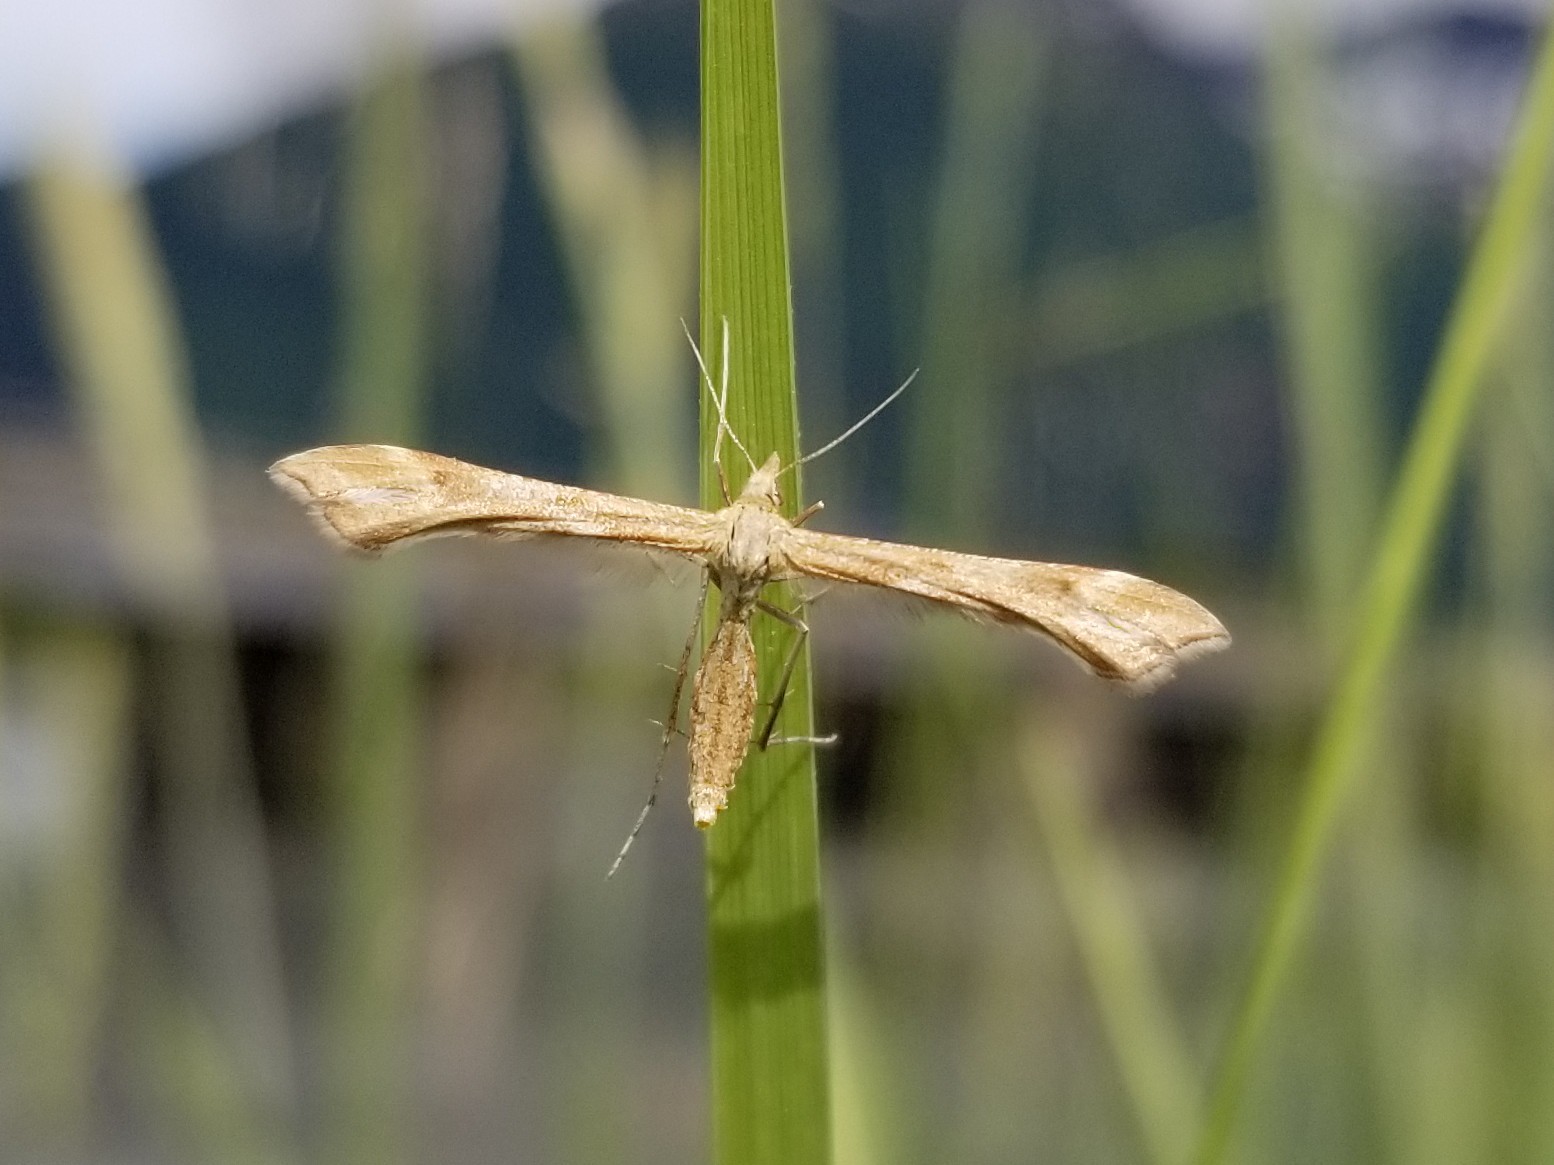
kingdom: Animalia
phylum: Arthropoda
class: Insecta
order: Lepidoptera
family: Pterophoridae
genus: Gillmeria
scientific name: Gillmeria pallidactyla
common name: Yarrow plume
